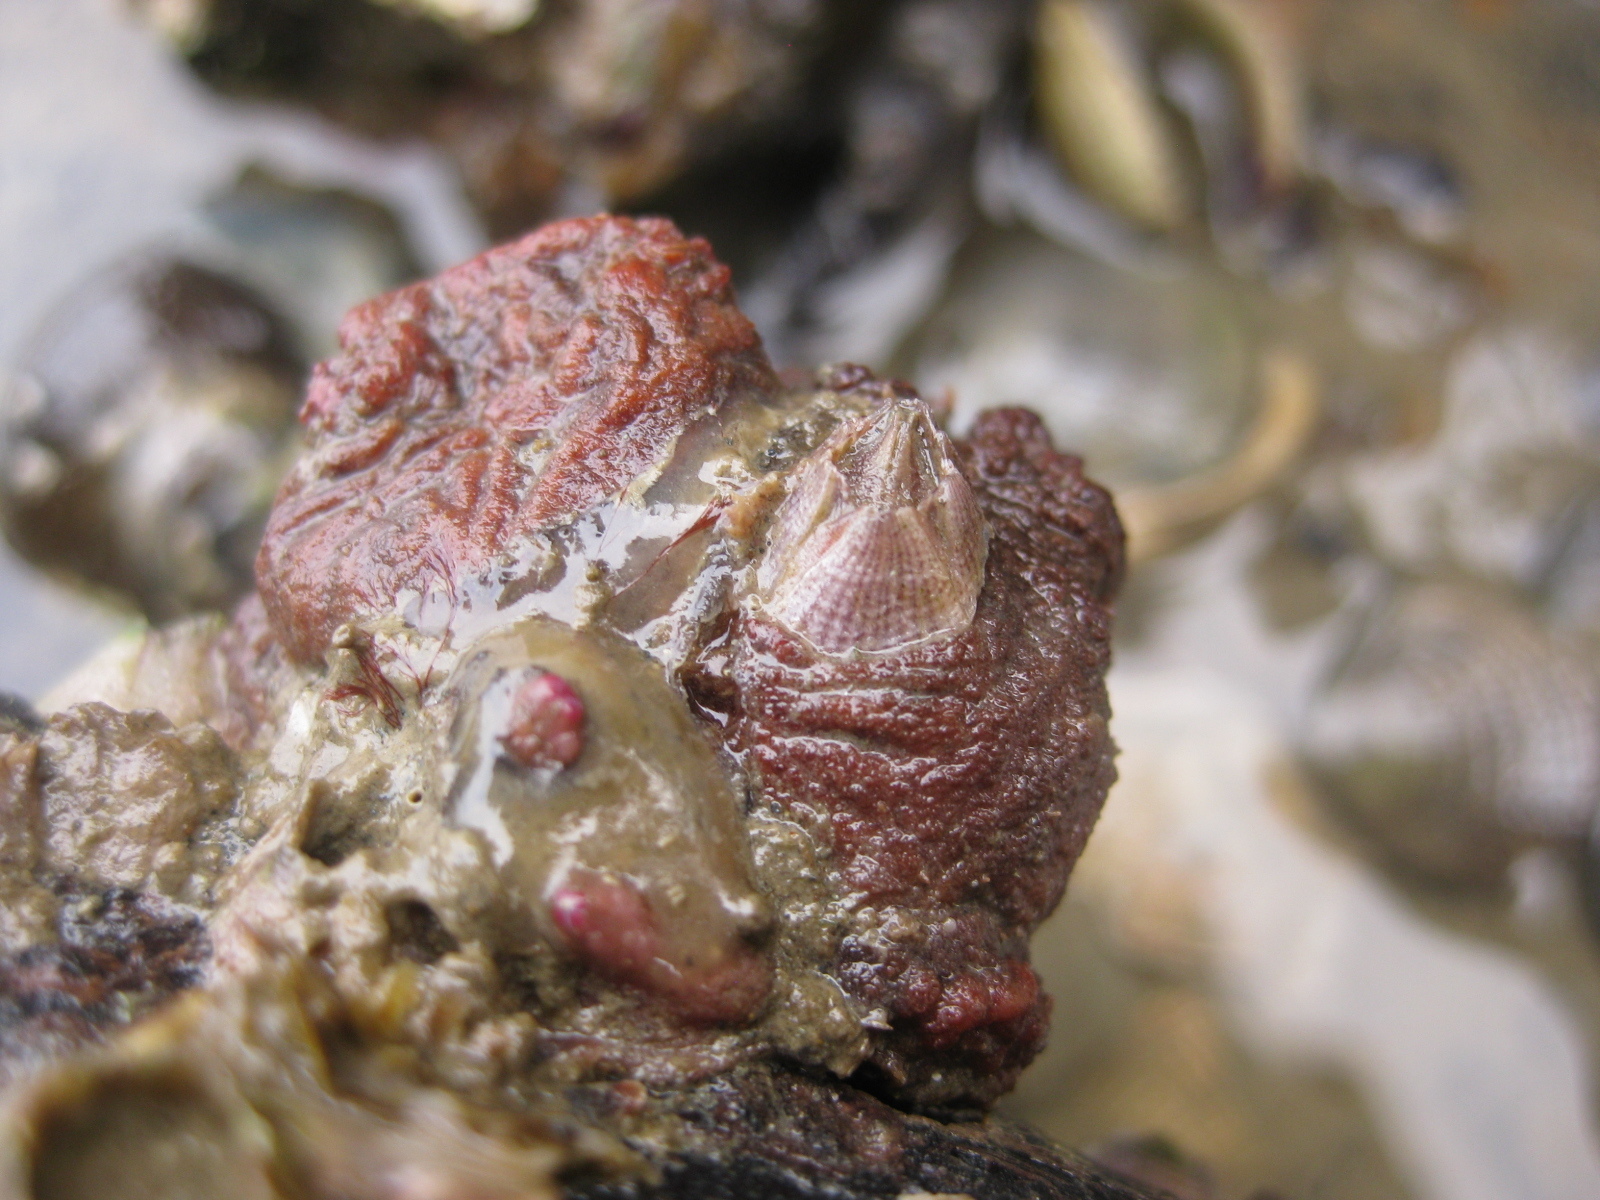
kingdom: Animalia
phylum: Arthropoda
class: Maxillopoda
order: Sessilia
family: Balanidae
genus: Fistulobalanus
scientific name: Fistulobalanus kondakovi
